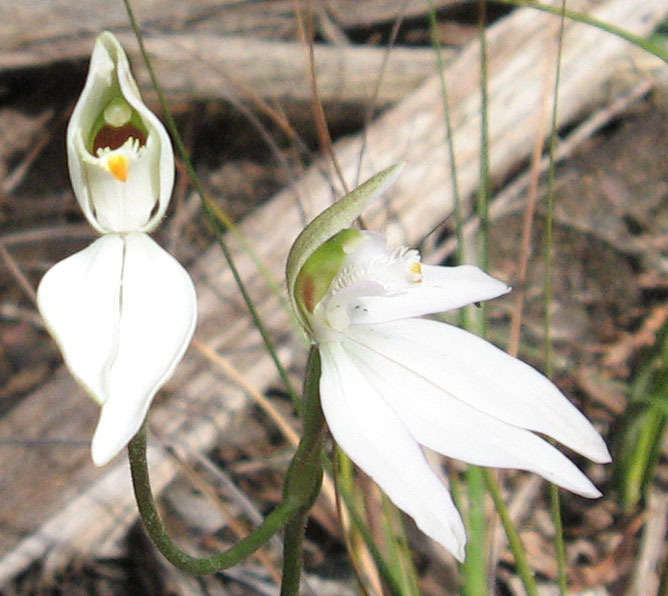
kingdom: Plantae
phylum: Tracheophyta
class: Liliopsida
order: Asparagales
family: Orchidaceae
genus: Caladenia
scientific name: Caladenia catenata
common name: White caladenia
